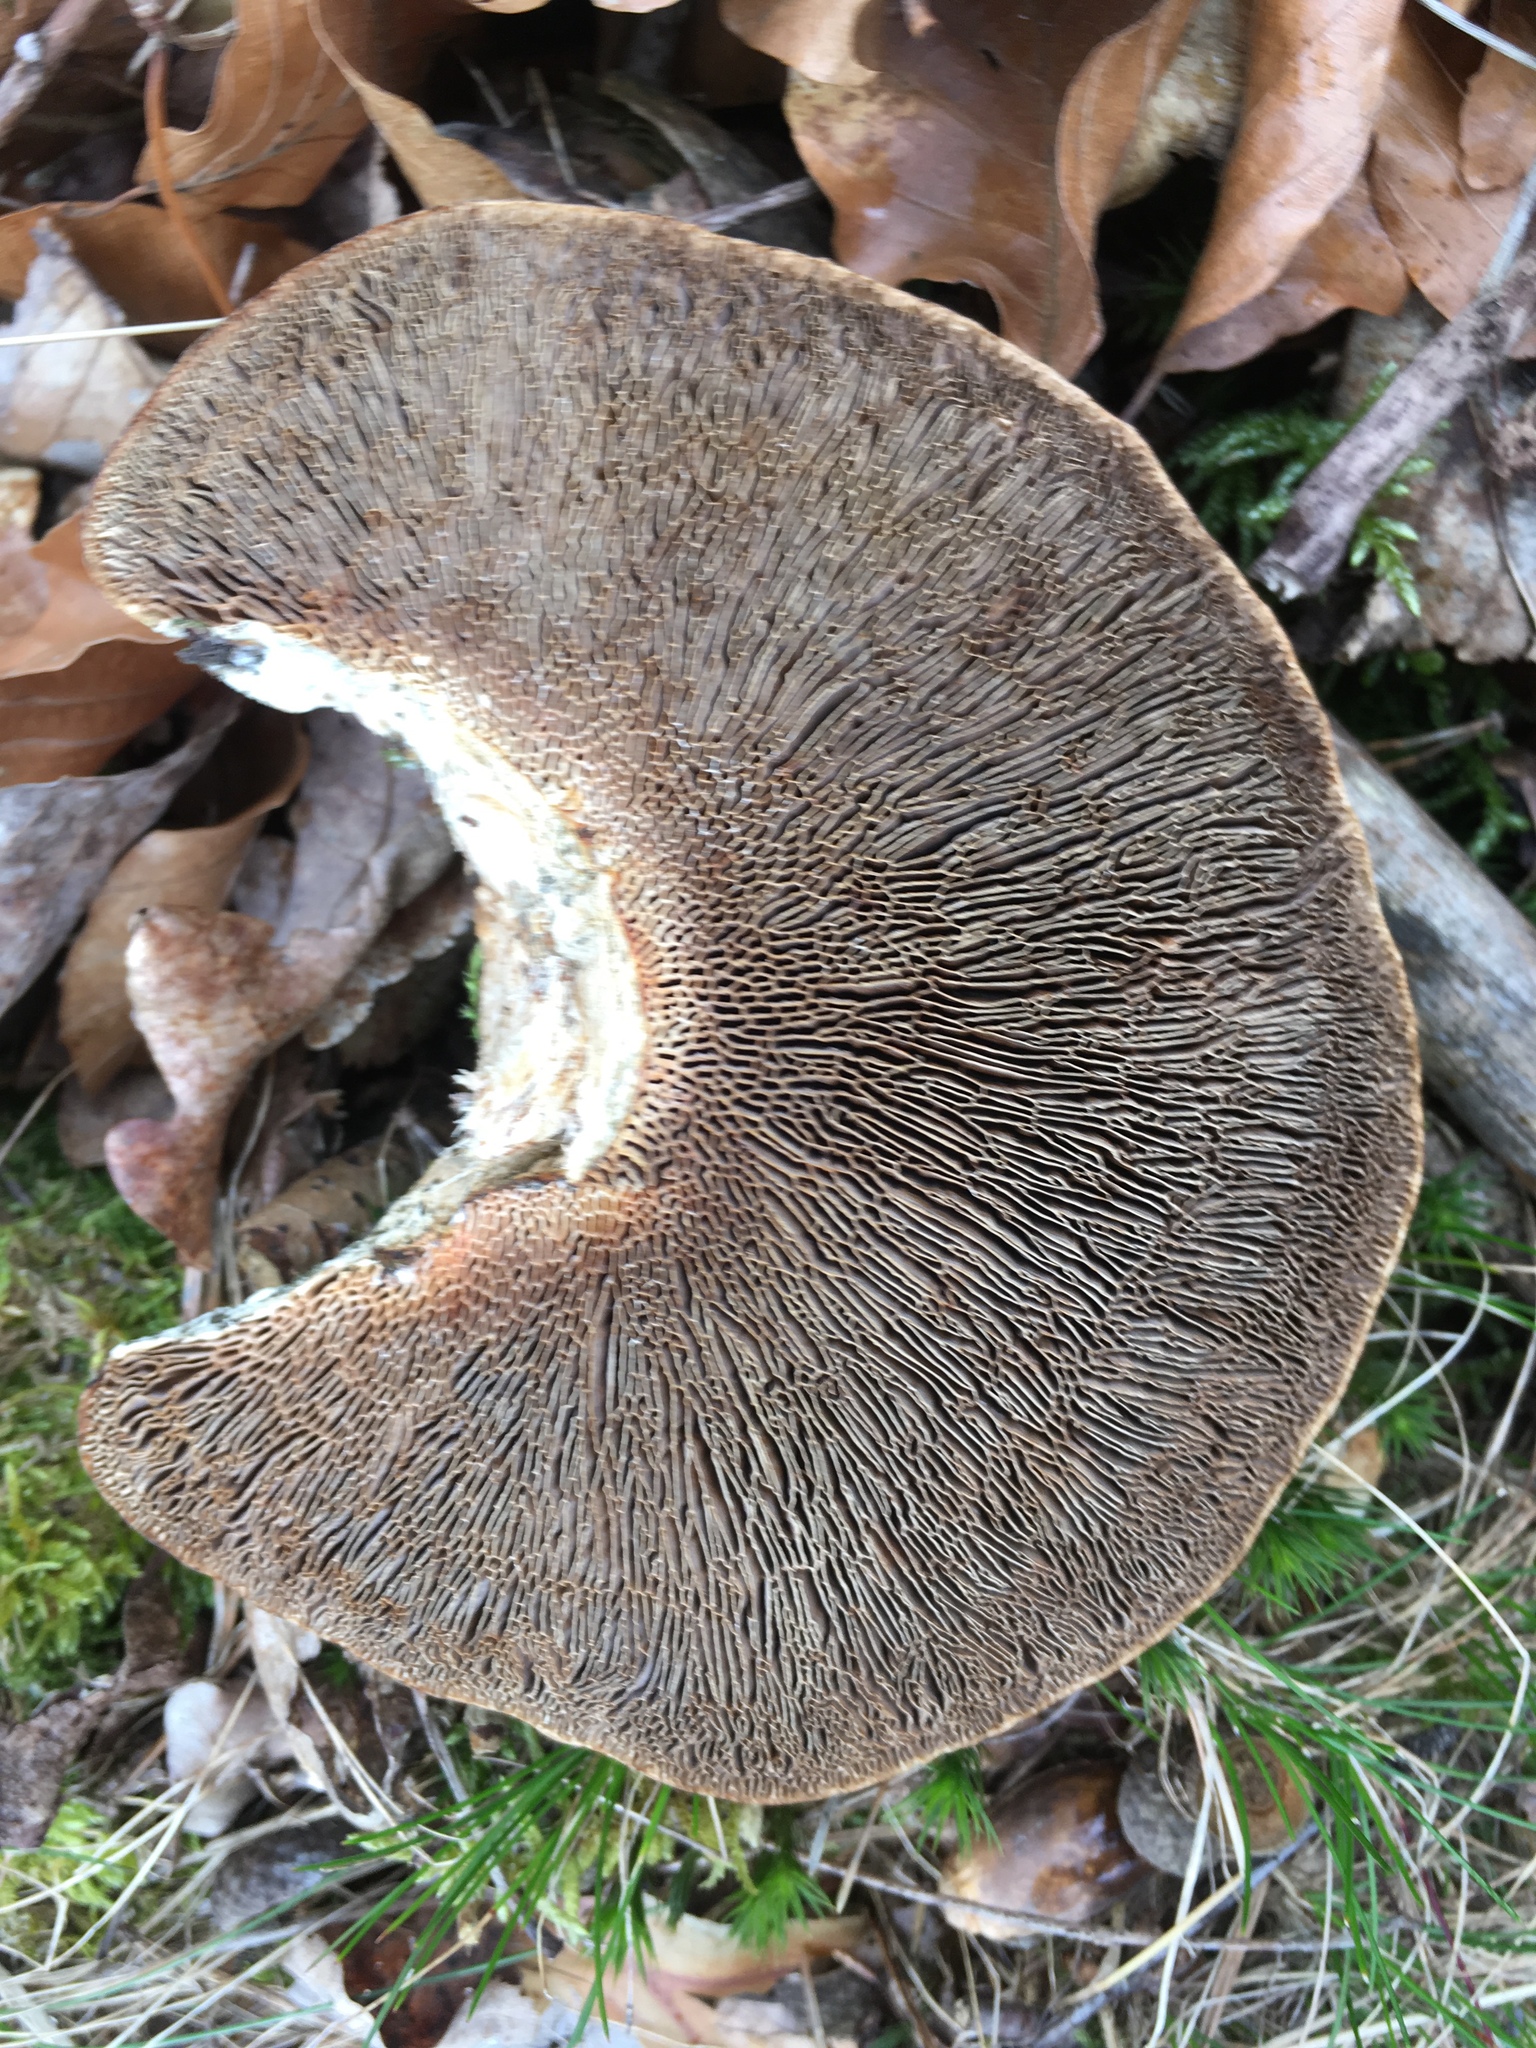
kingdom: Fungi
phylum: Basidiomycota
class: Agaricomycetes
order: Polyporales
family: Polyporaceae
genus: Daedaleopsis
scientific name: Daedaleopsis confragosa
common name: Blushing bracket
